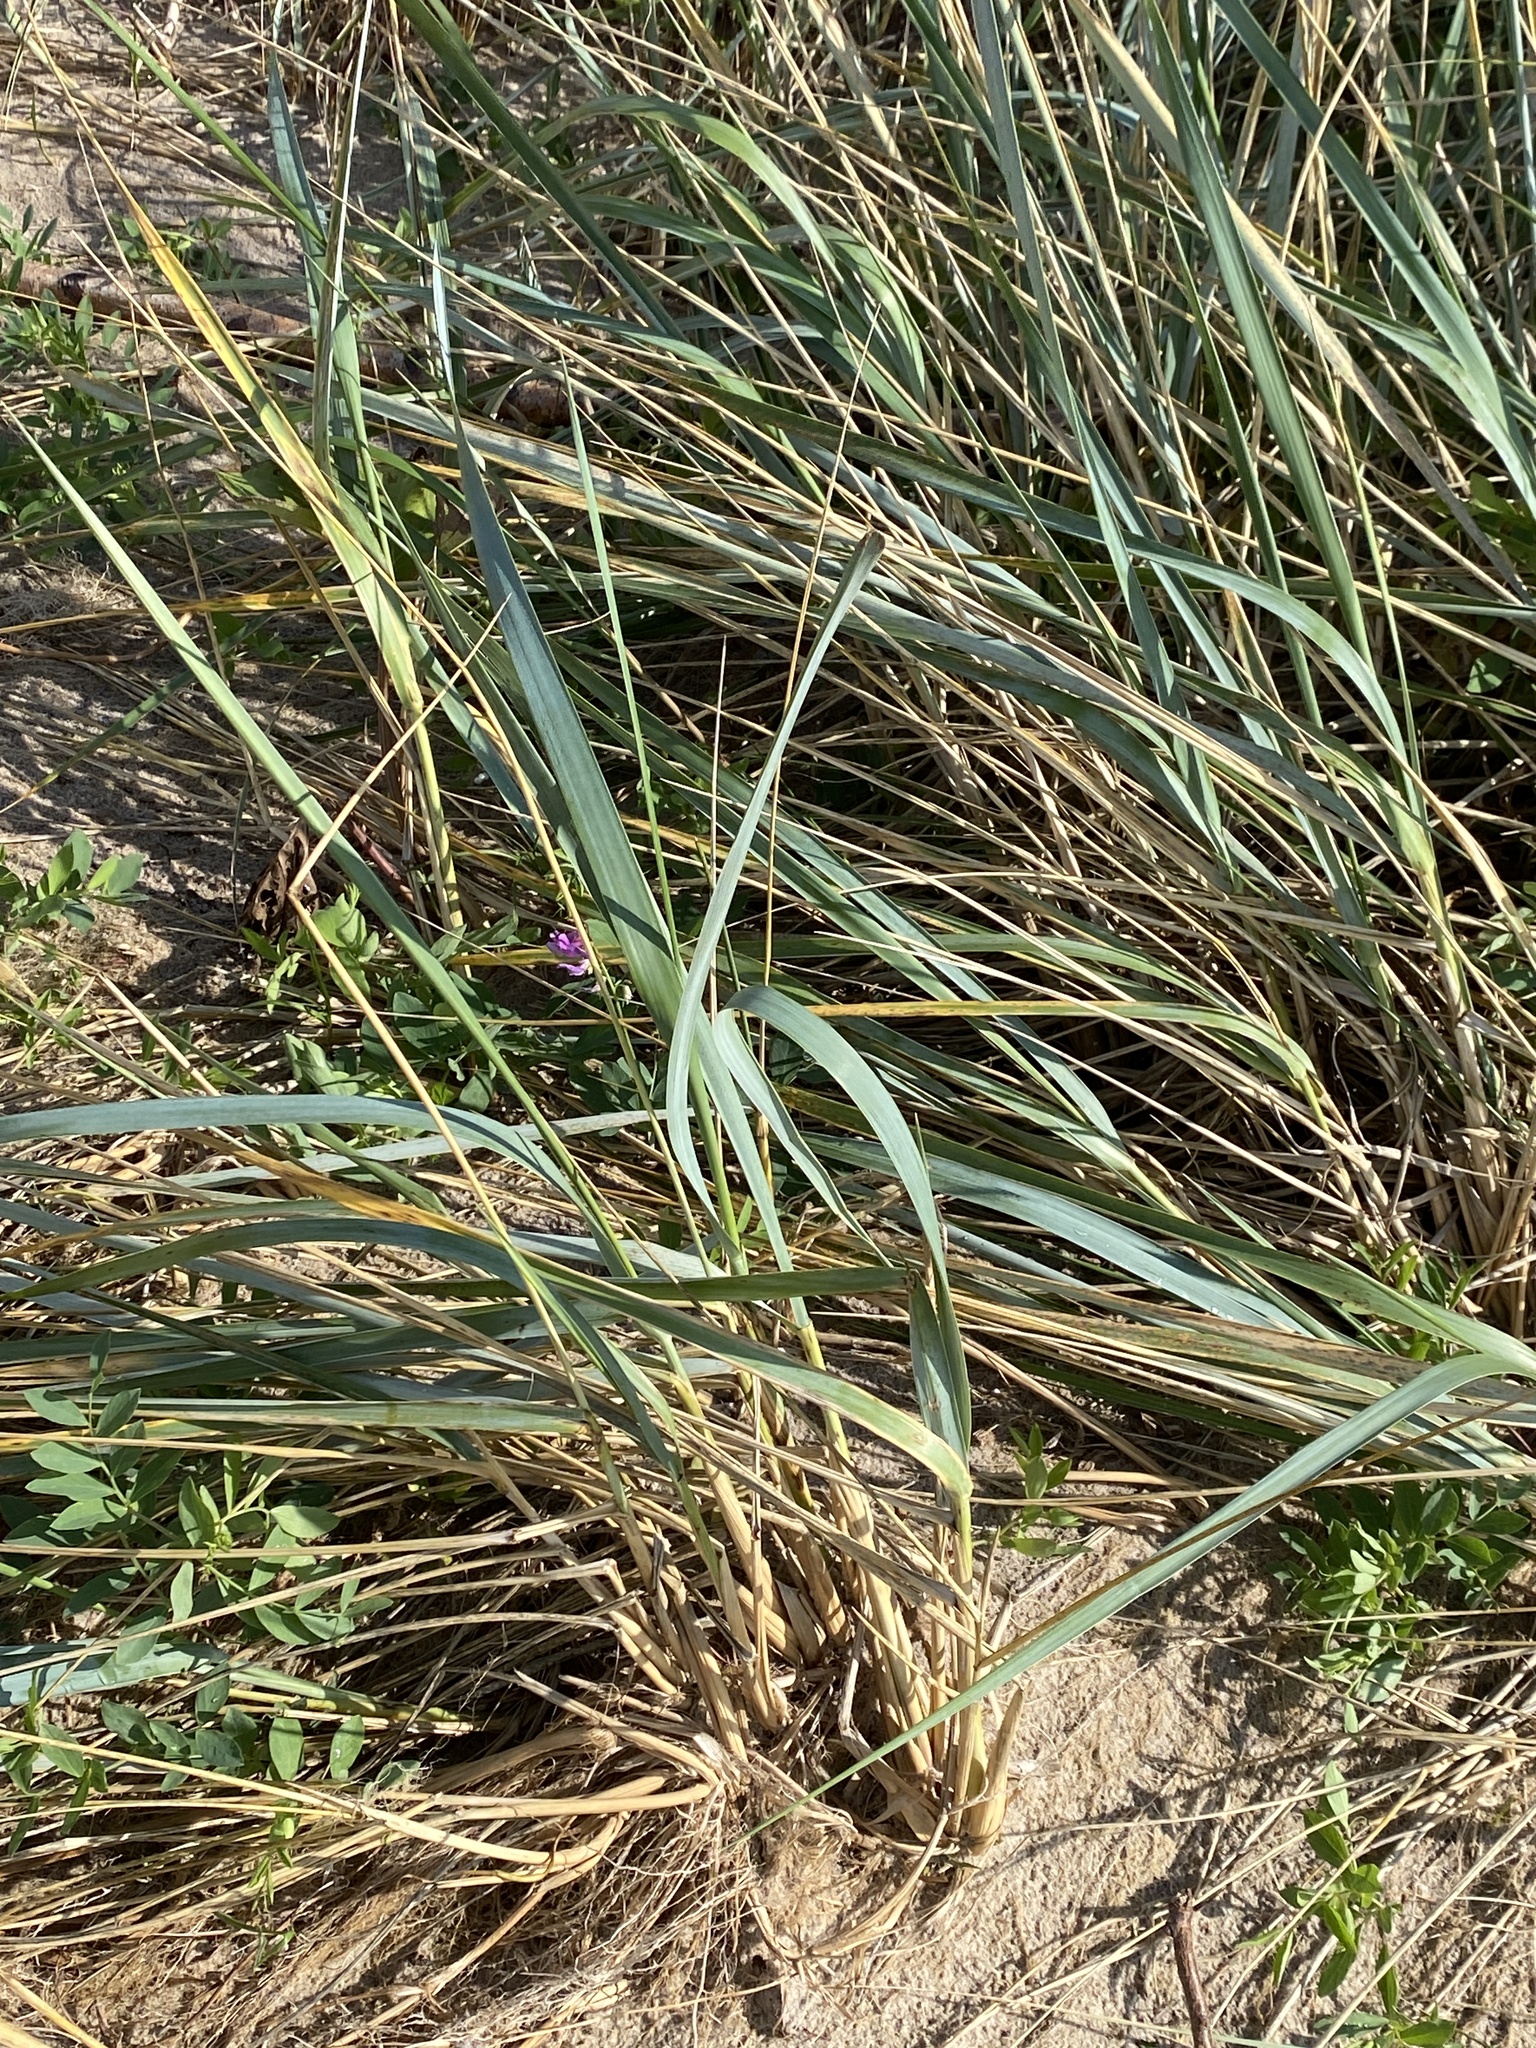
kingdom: Plantae
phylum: Tracheophyta
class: Liliopsida
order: Poales
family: Poaceae
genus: Leymus
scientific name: Leymus arenarius
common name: Lyme-grass
